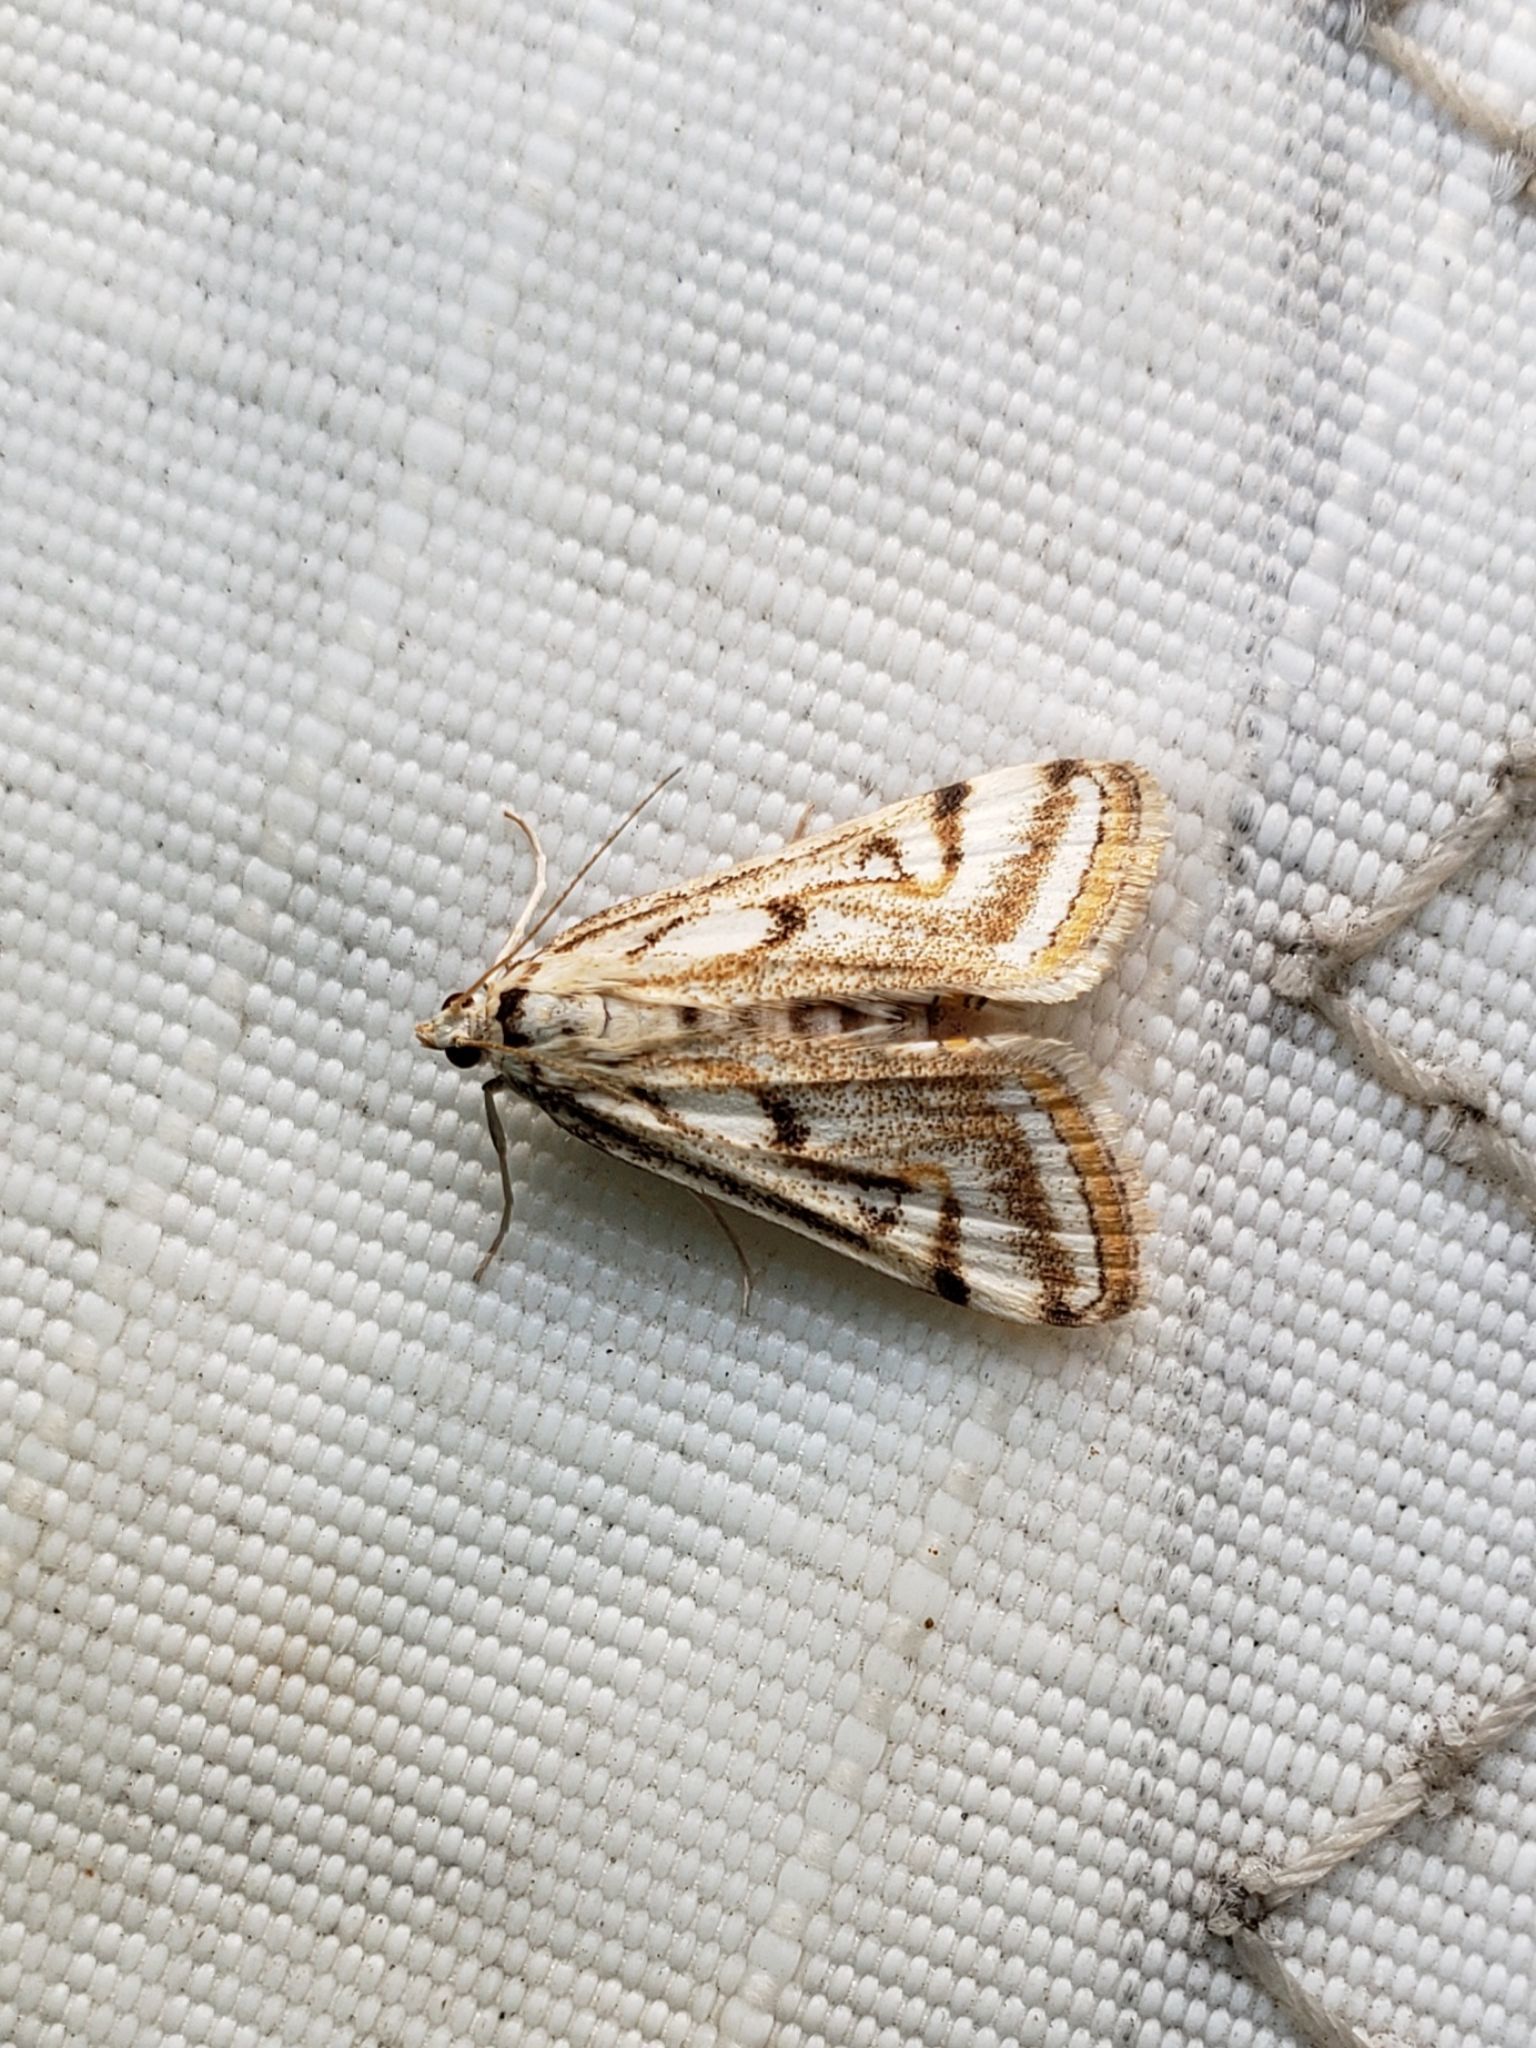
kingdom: Animalia
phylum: Arthropoda
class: Insecta
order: Lepidoptera
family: Crambidae
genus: Parapoynx
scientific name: Parapoynx badiusalis
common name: Chestnut-marked pondweed moth
